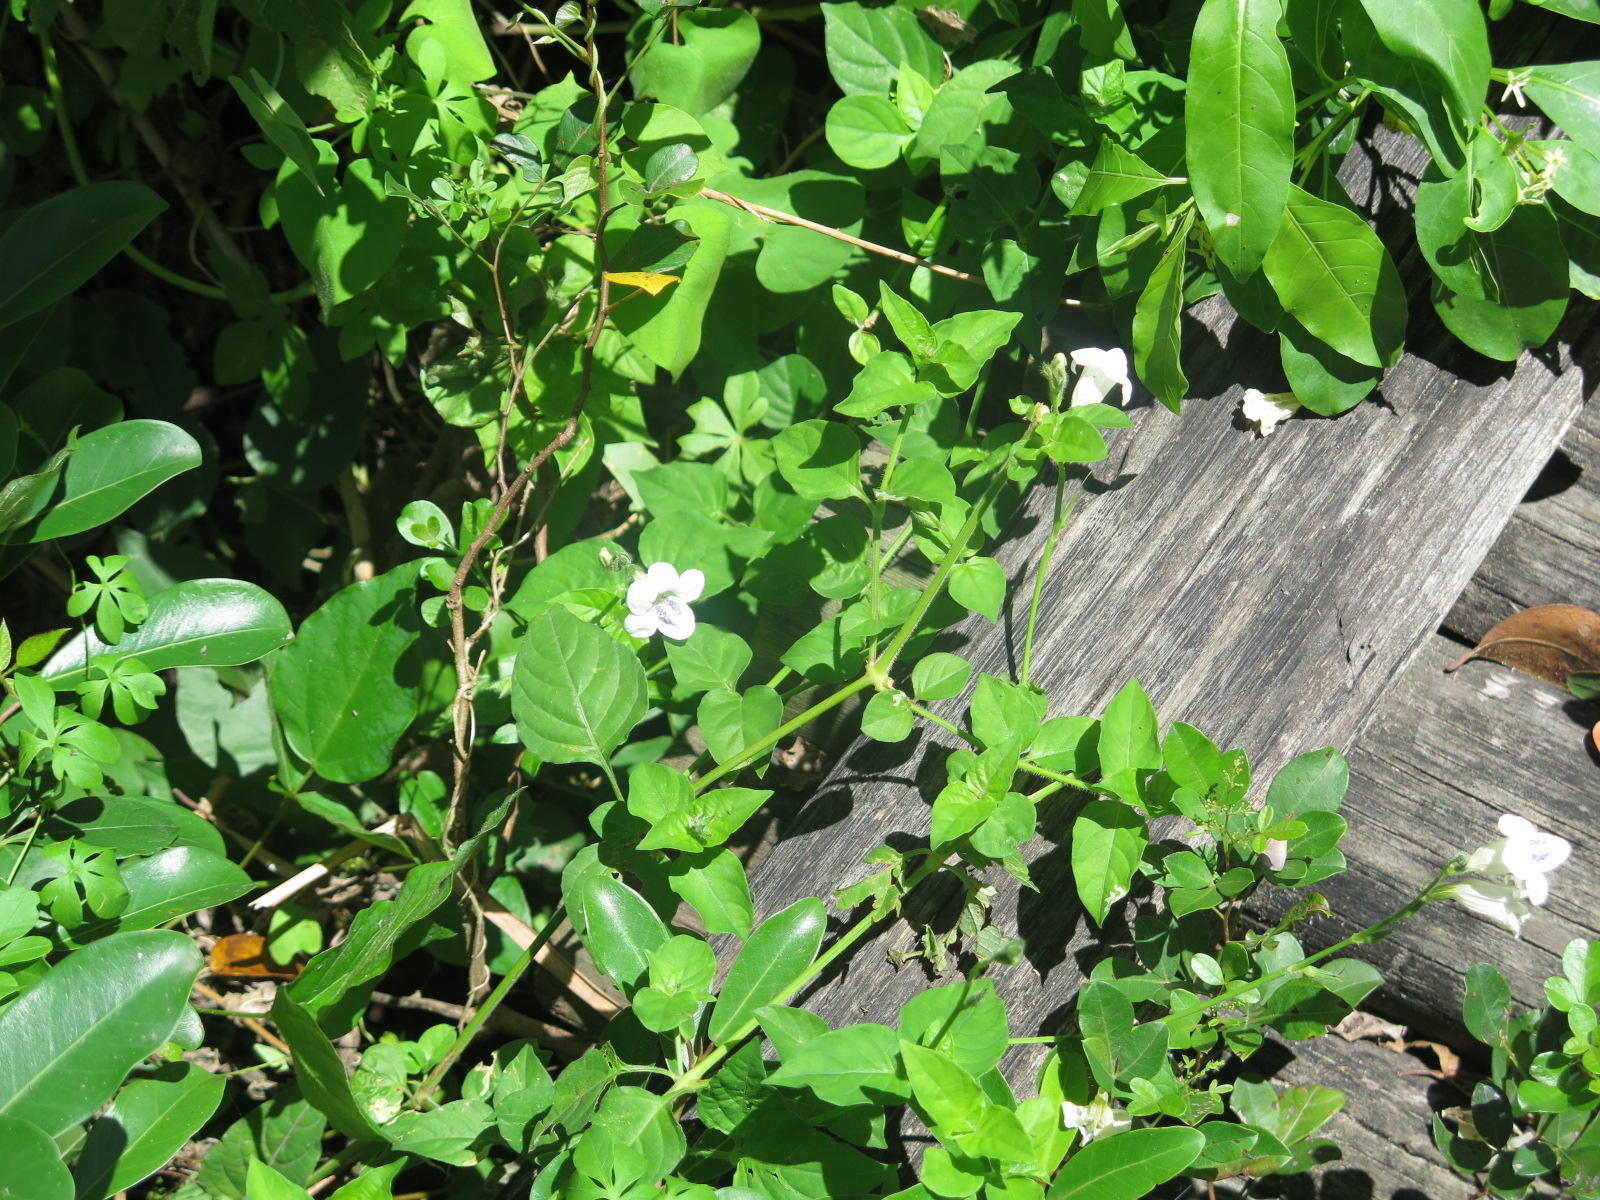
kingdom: Plantae
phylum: Tracheophyta
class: Magnoliopsida
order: Lamiales
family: Acanthaceae
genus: Asystasia
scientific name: Asystasia intrusa
